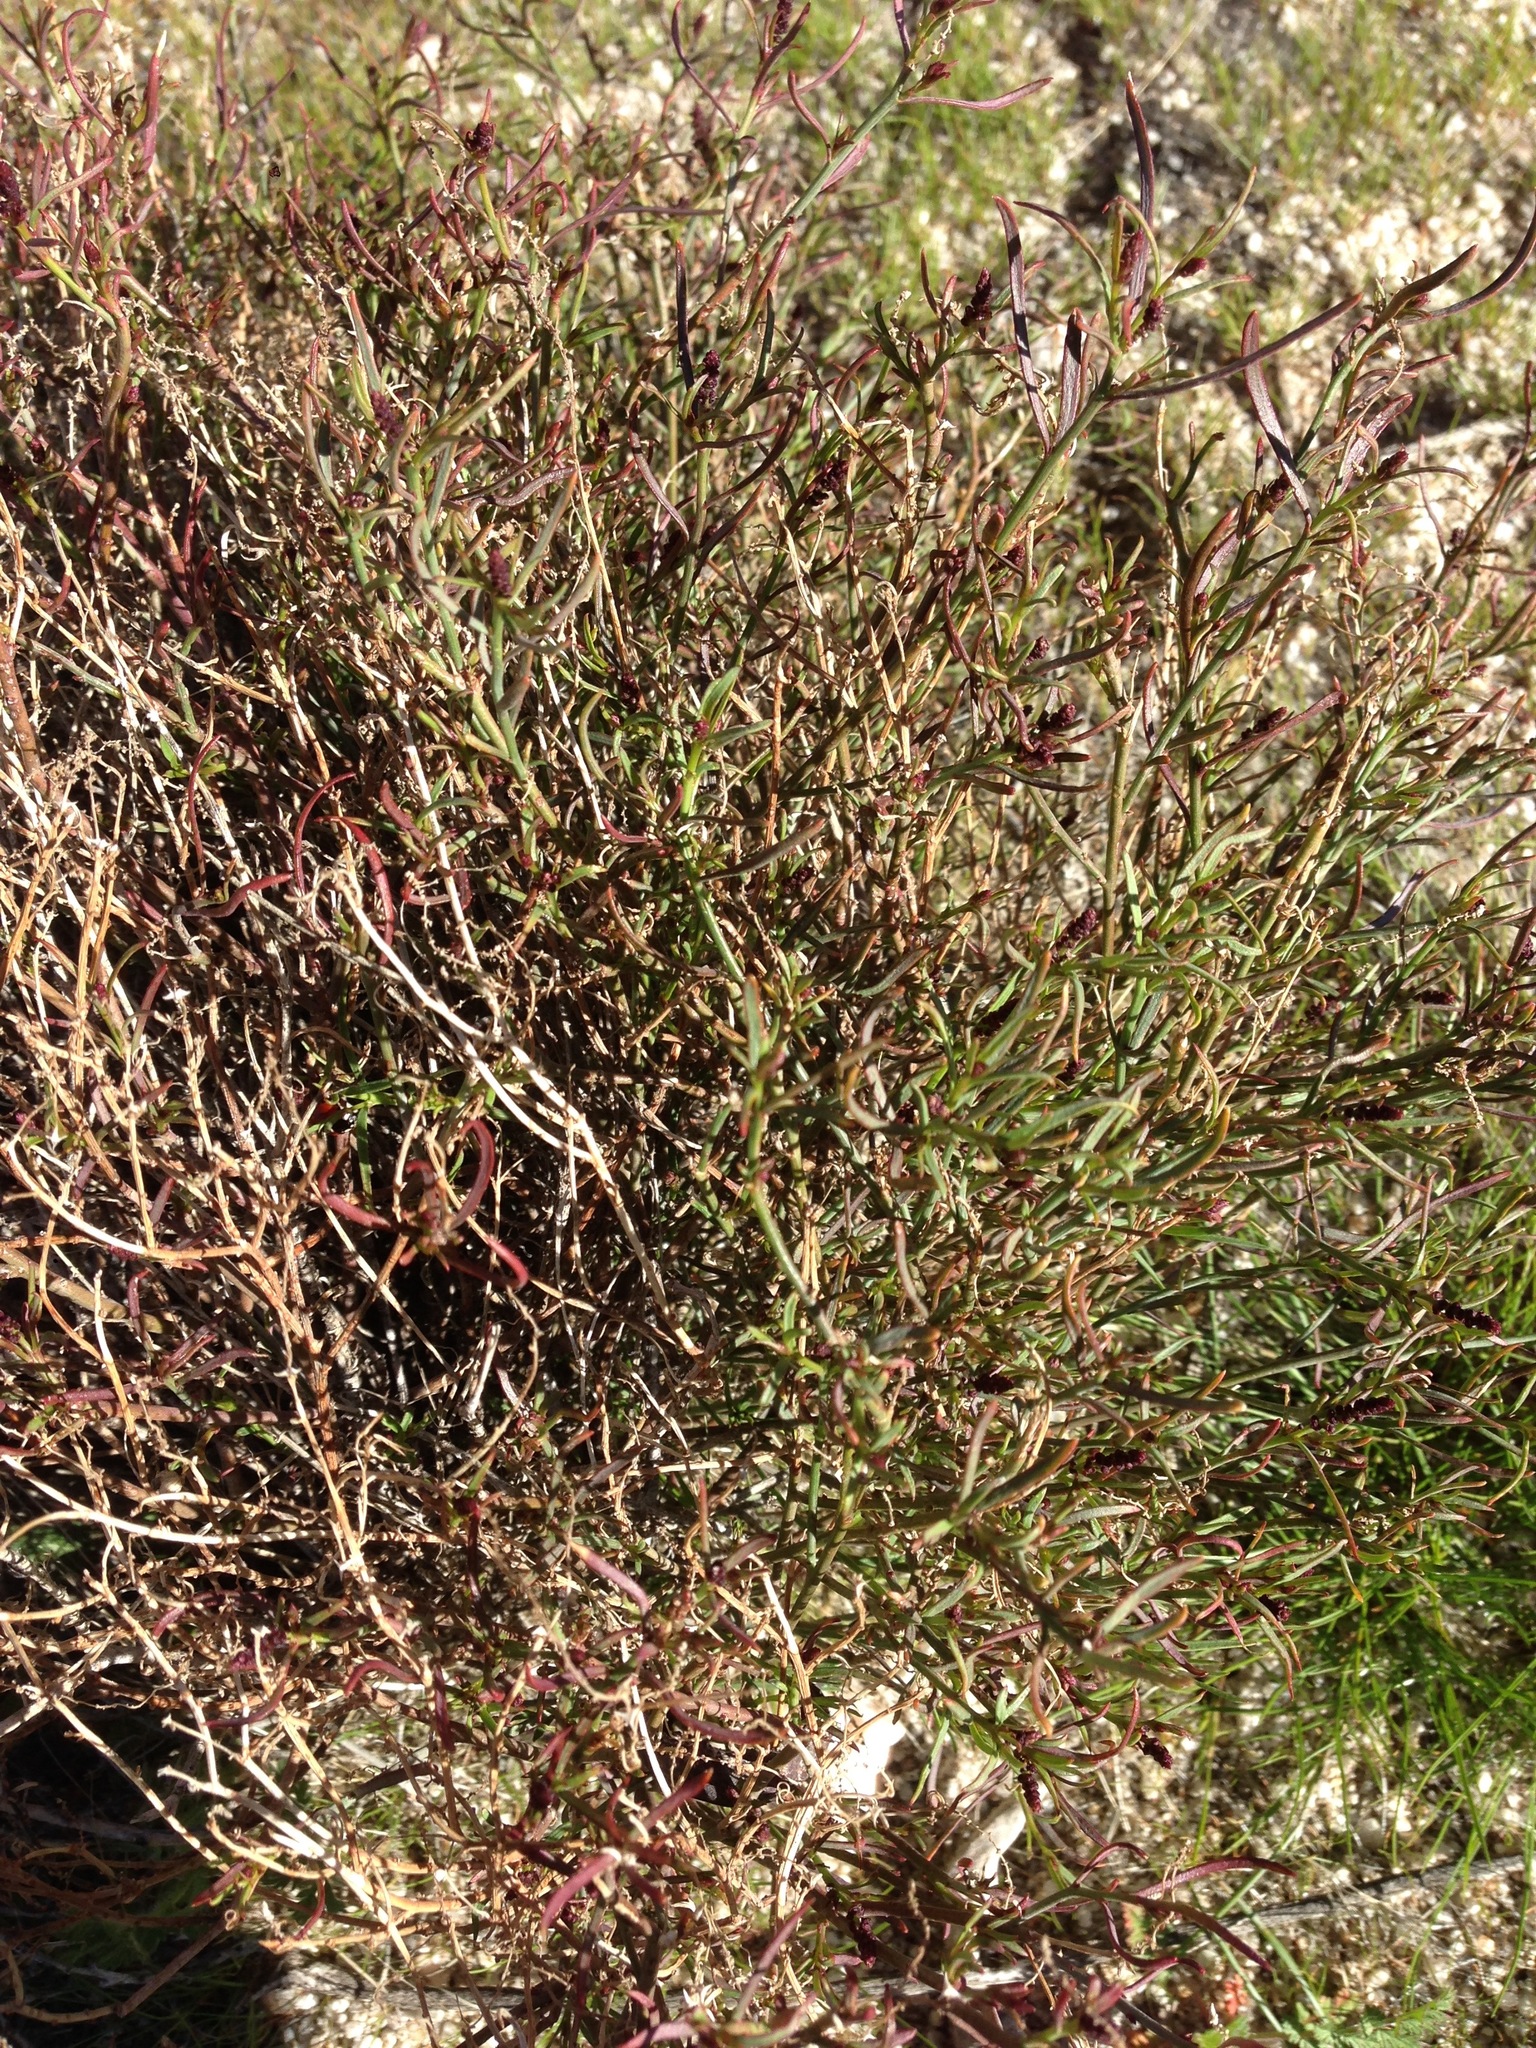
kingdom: Plantae
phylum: Tracheophyta
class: Magnoliopsida
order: Malpighiales
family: Euphorbiaceae
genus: Stillingia
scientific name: Stillingia linearifolia
